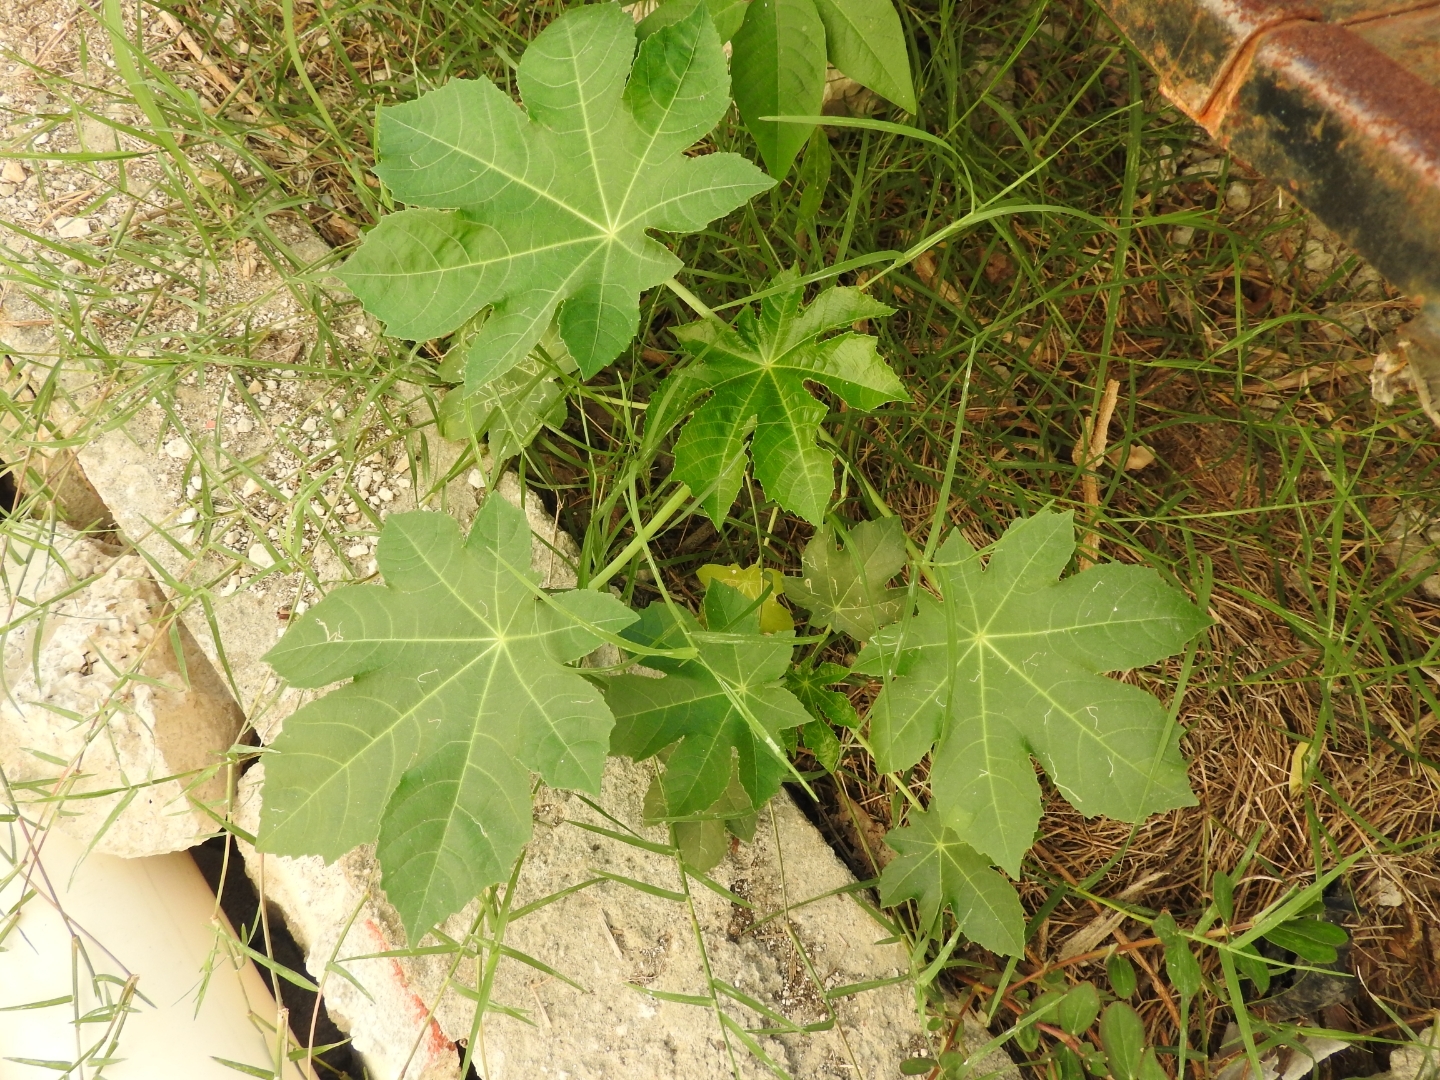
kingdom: Plantae
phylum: Tracheophyta
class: Magnoliopsida
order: Malpighiales
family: Euphorbiaceae
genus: Ricinus
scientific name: Ricinus communis
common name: Castor-oil-plant
